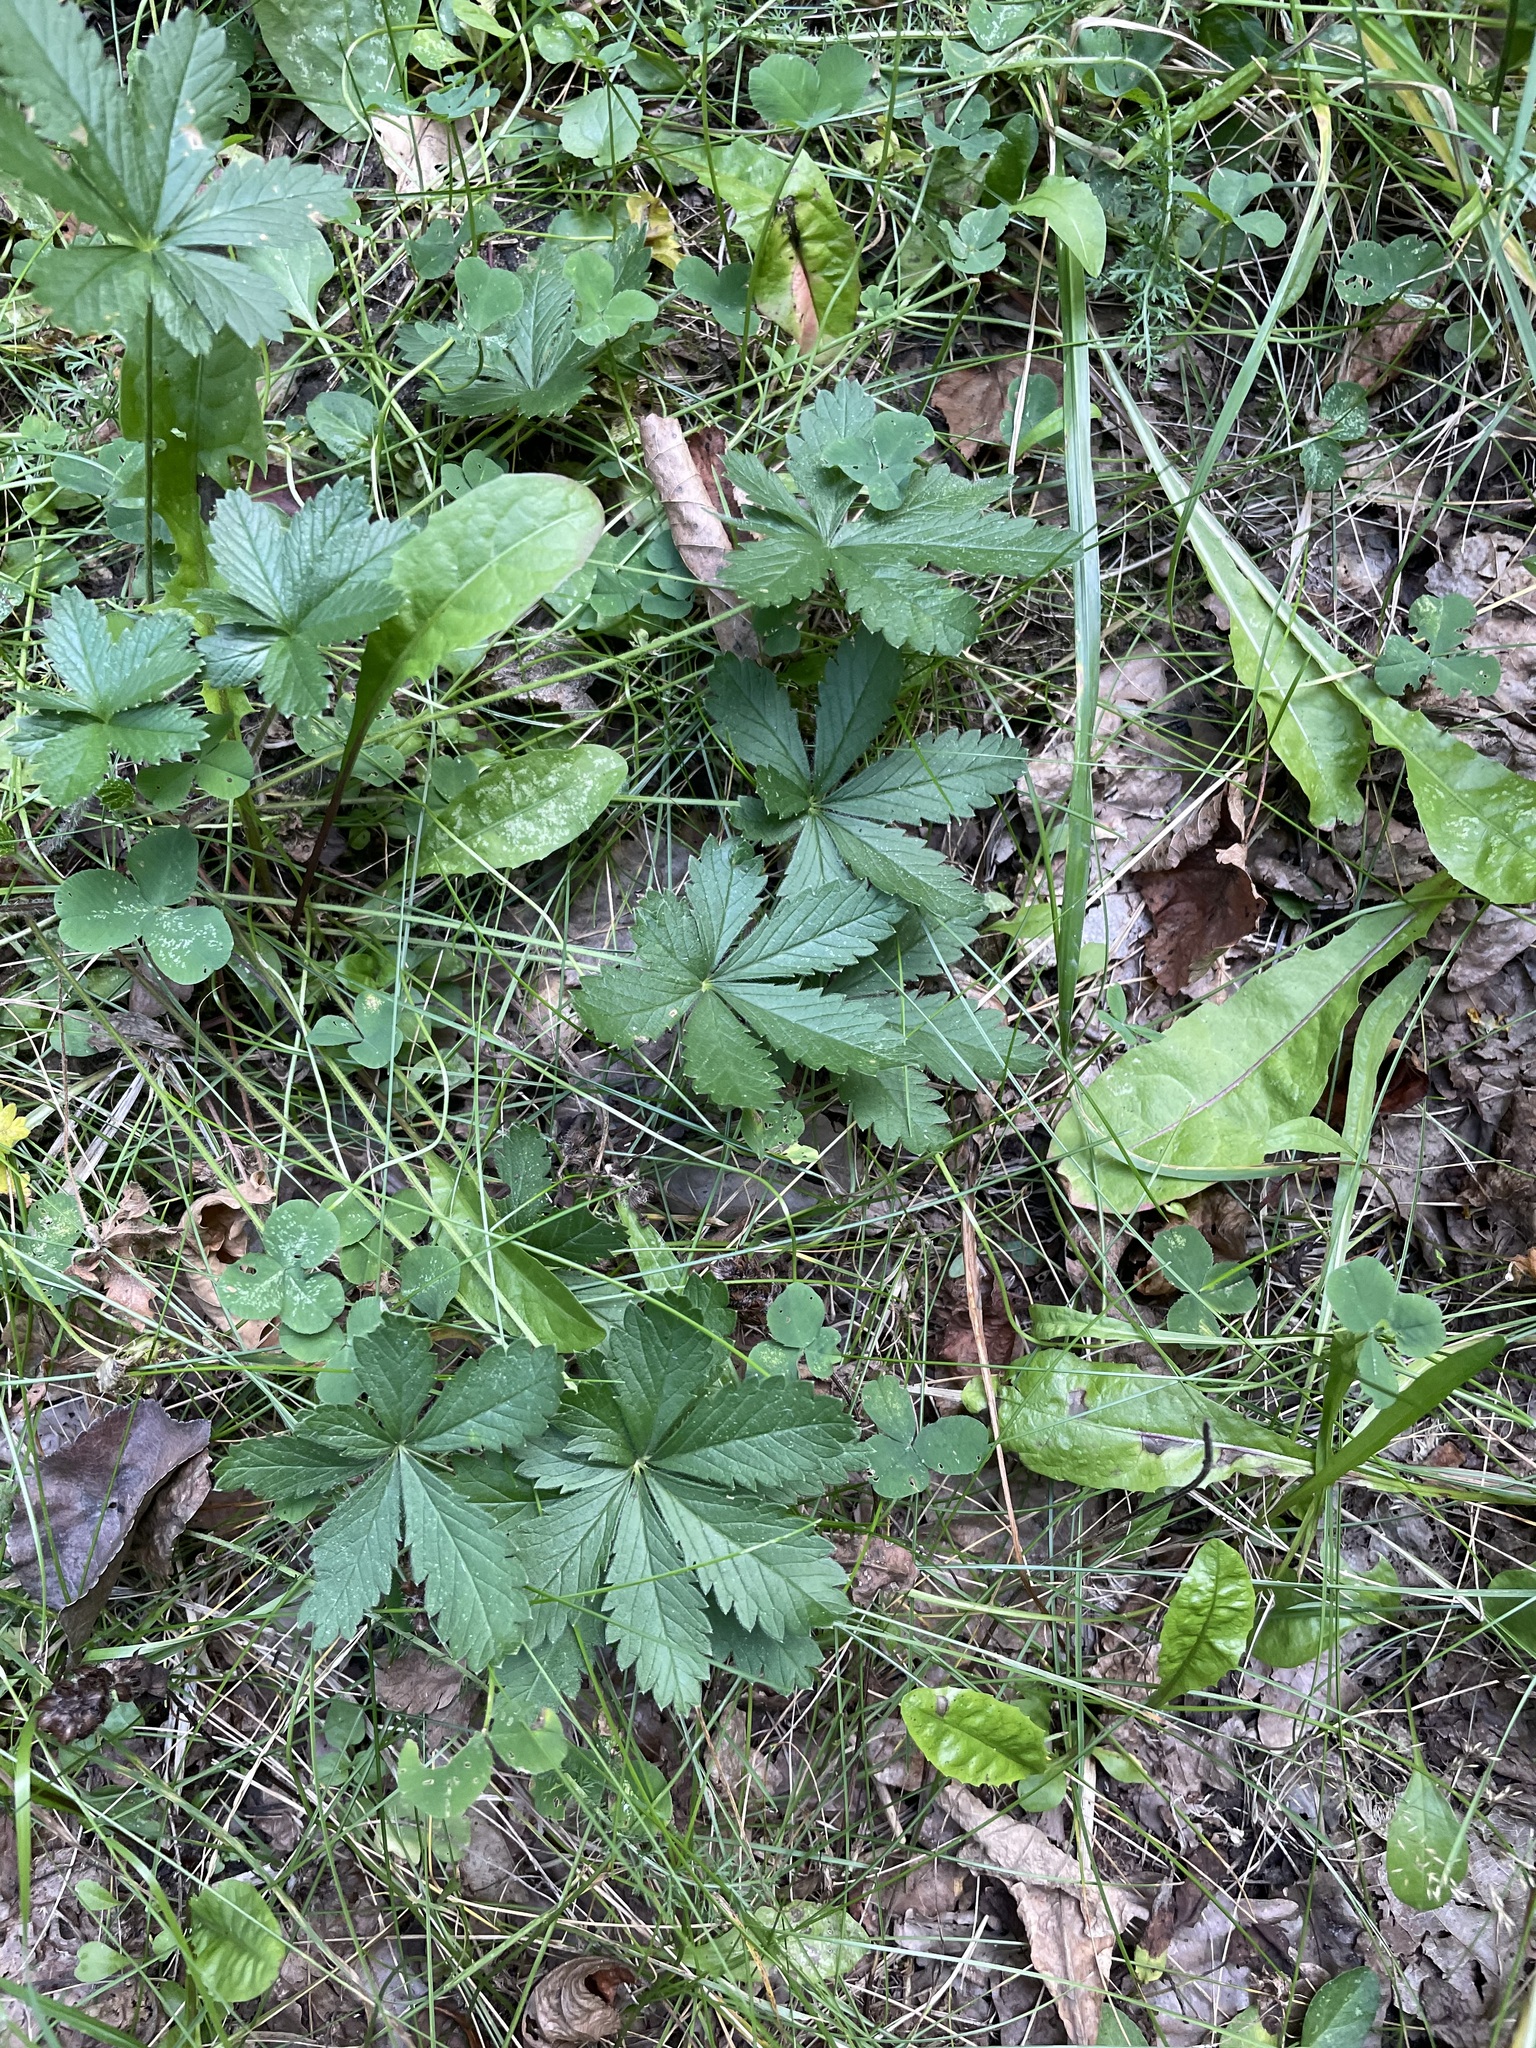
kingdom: Plantae
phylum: Tracheophyta
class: Magnoliopsida
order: Rosales
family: Rosaceae
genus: Potentilla
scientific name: Potentilla thuringiaca
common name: European cinquefoil
